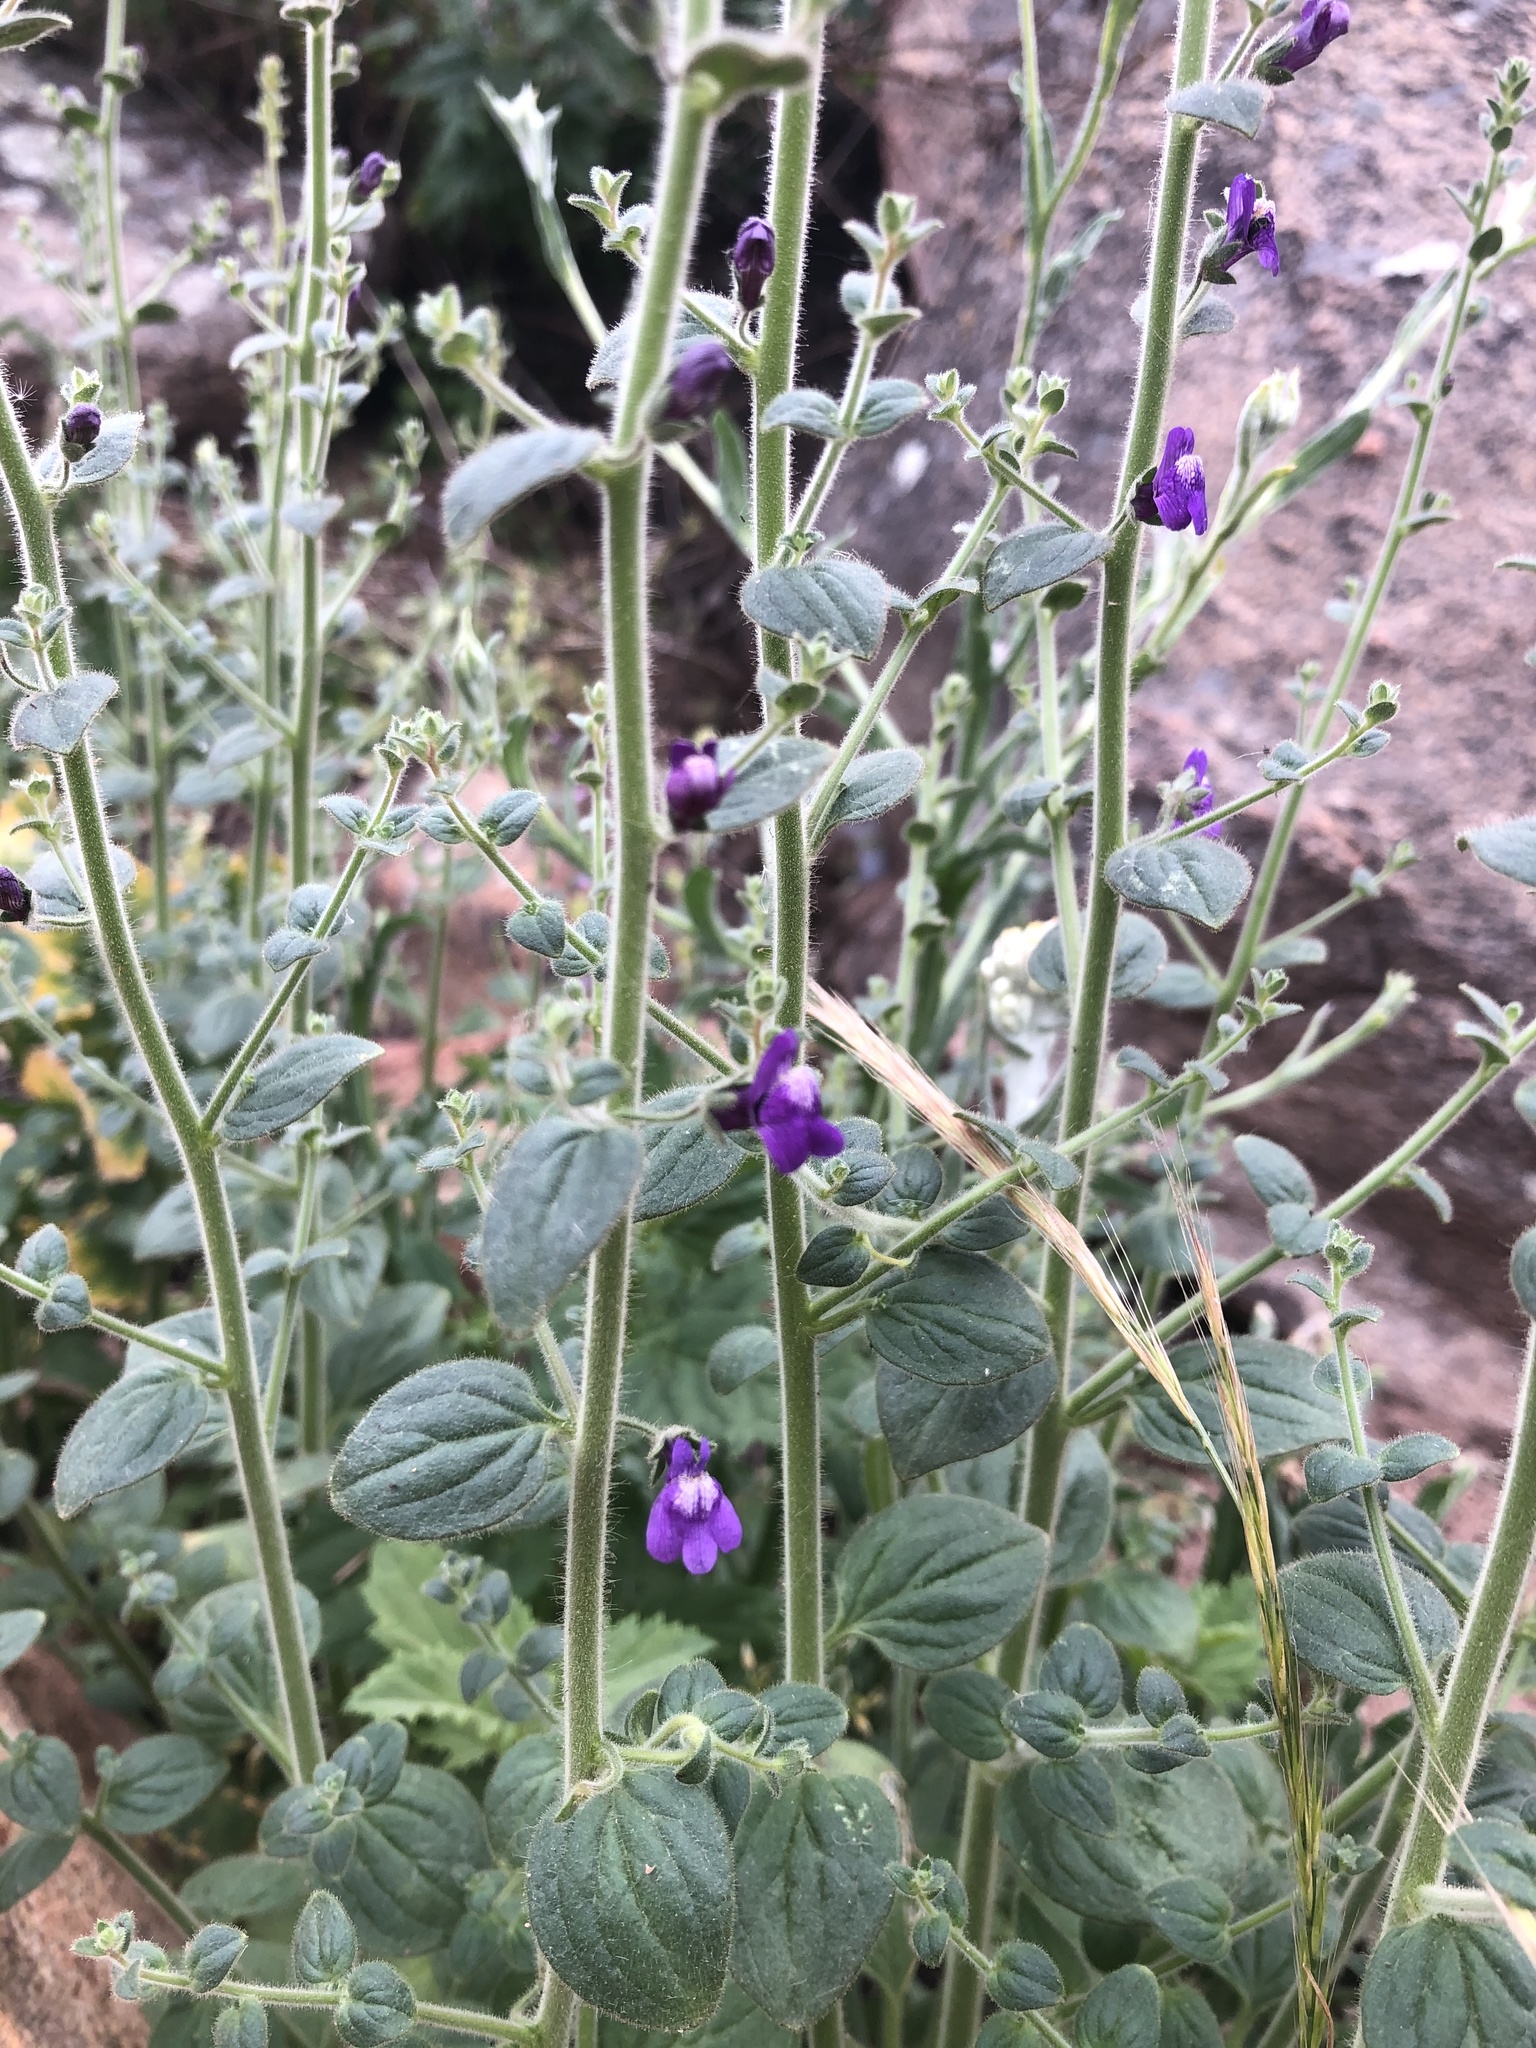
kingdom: Plantae
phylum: Tracheophyta
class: Magnoliopsida
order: Lamiales
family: Plantaginaceae
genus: Sairocarpus
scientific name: Sairocarpus nuttallianus
